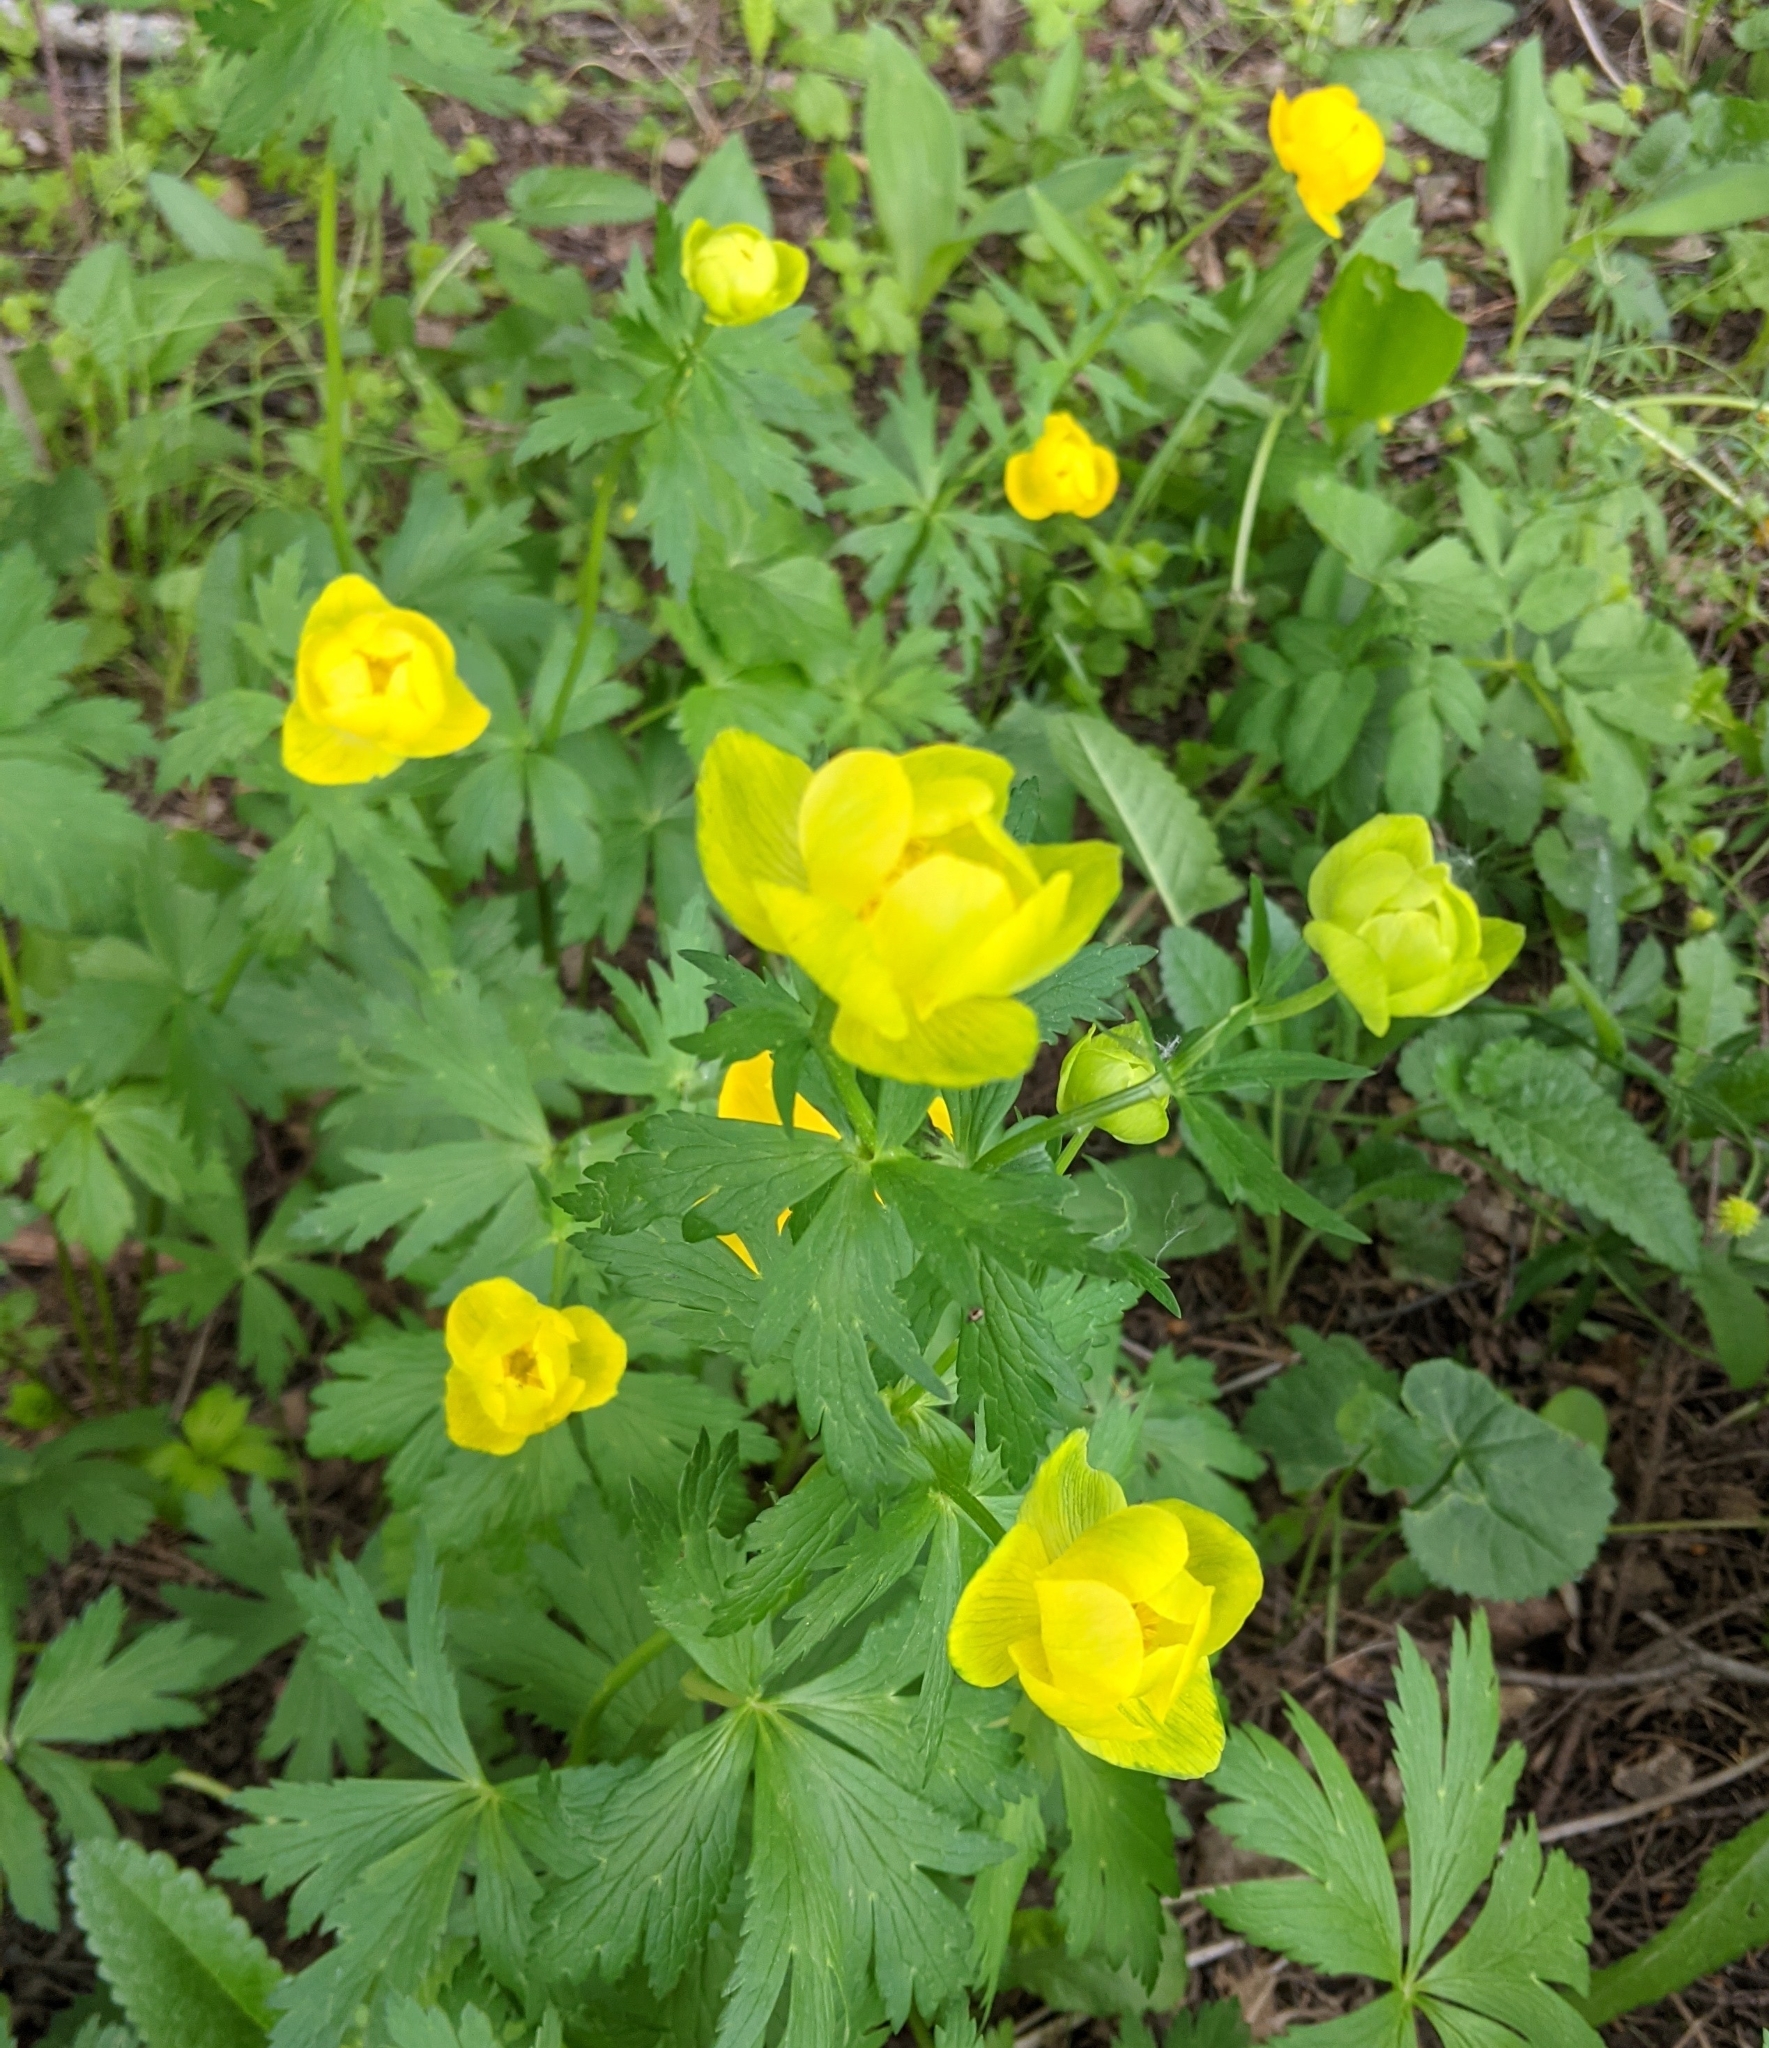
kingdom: Plantae
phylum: Tracheophyta
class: Magnoliopsida
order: Ranunculales
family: Ranunculaceae
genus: Trollius
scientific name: Trollius europaeus
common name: European globeflower
